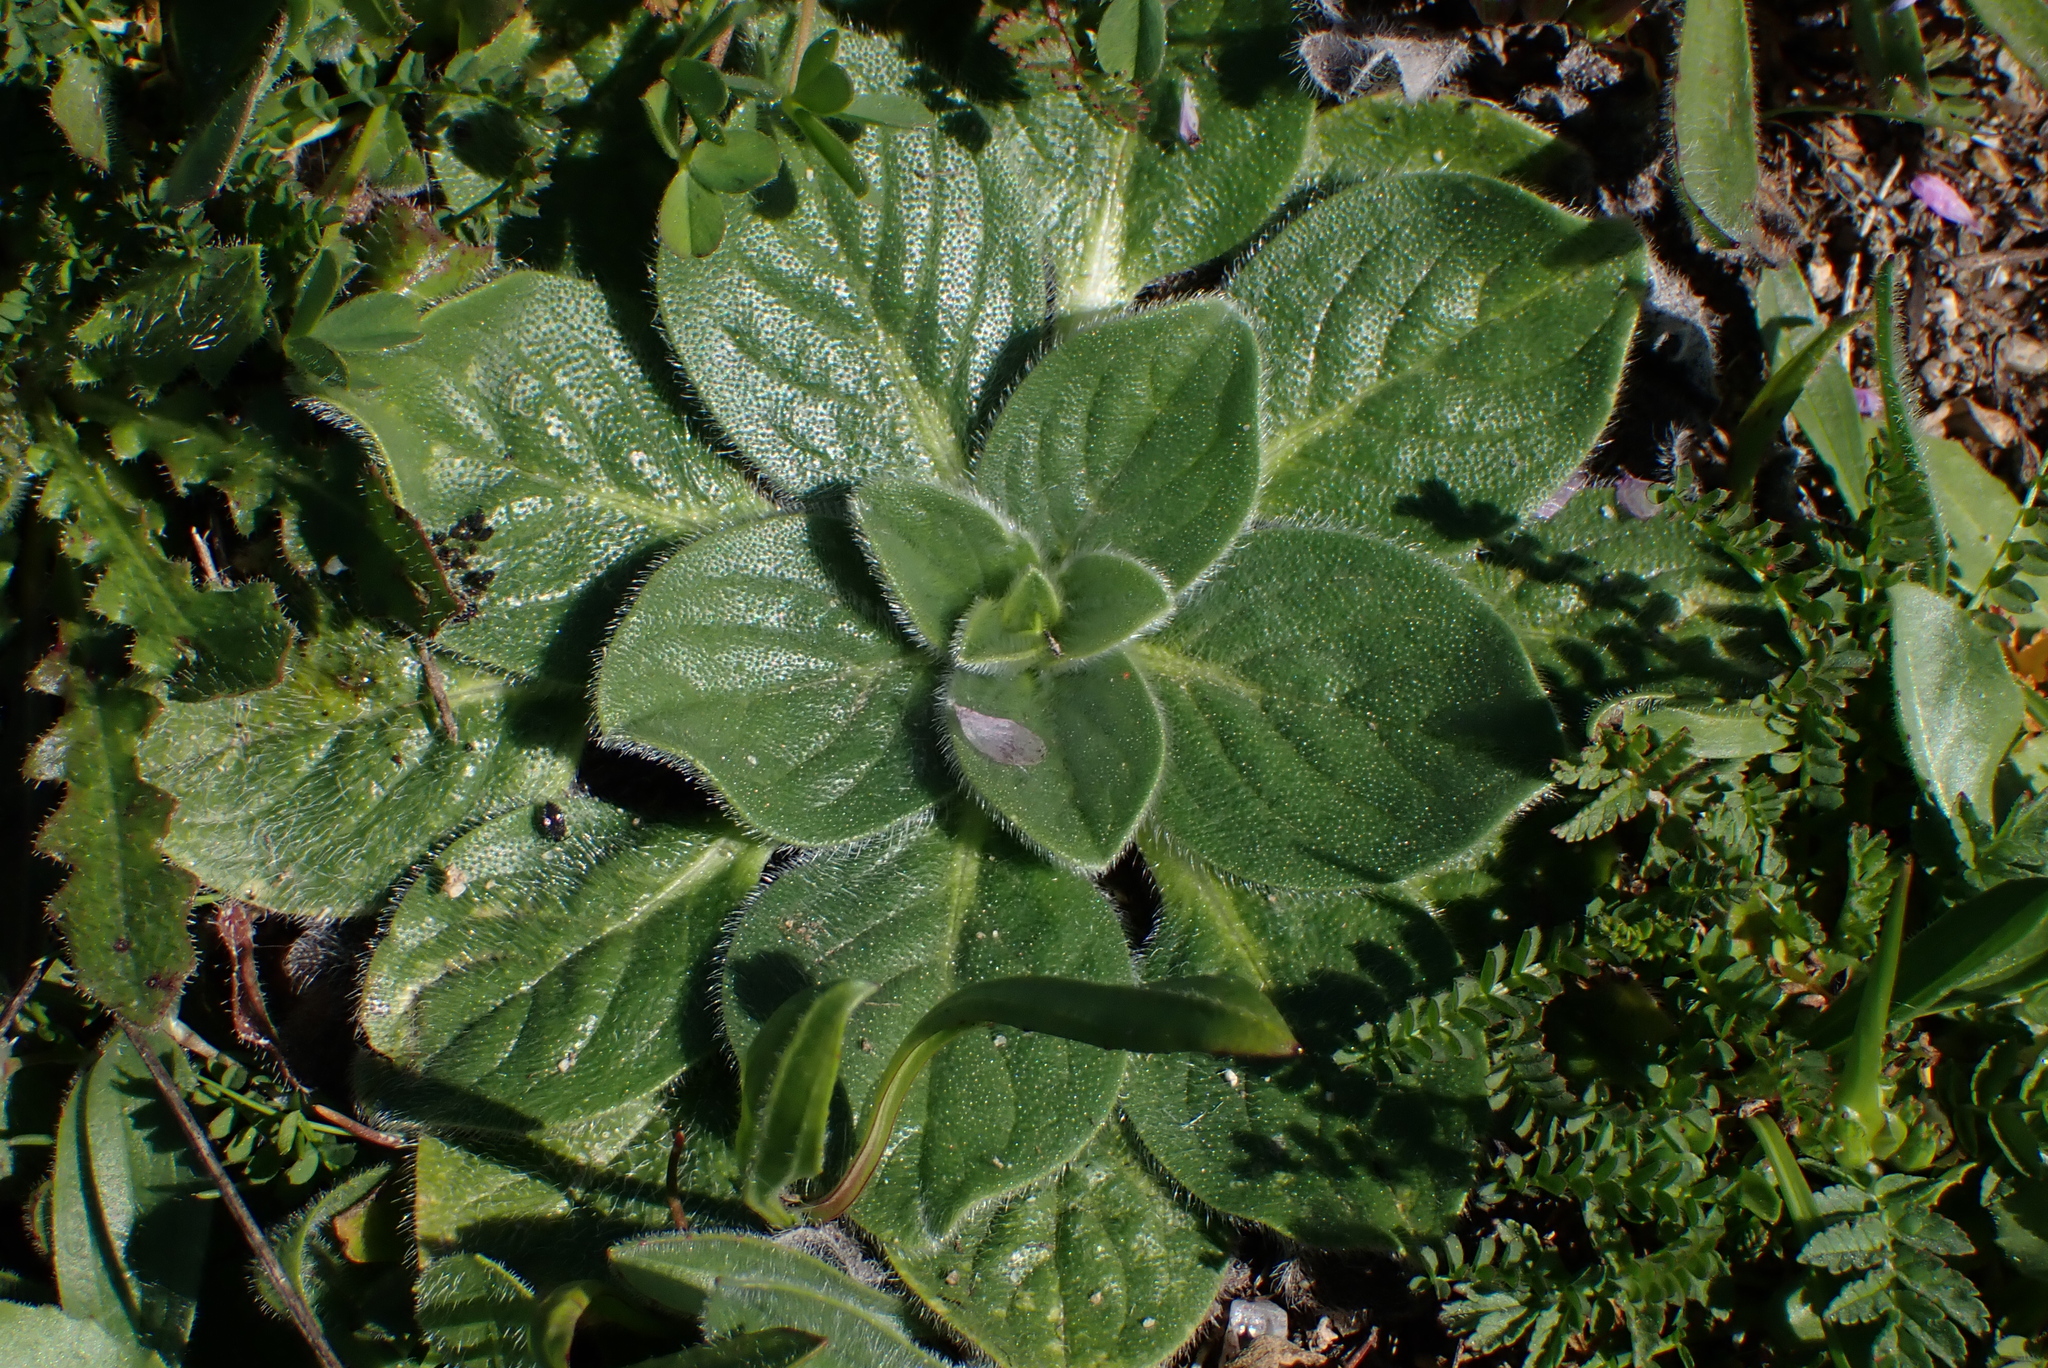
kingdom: Plantae
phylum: Tracheophyta
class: Magnoliopsida
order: Boraginales
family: Boraginaceae
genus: Echium
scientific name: Echium plantagineum
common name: Purple viper's-bugloss
